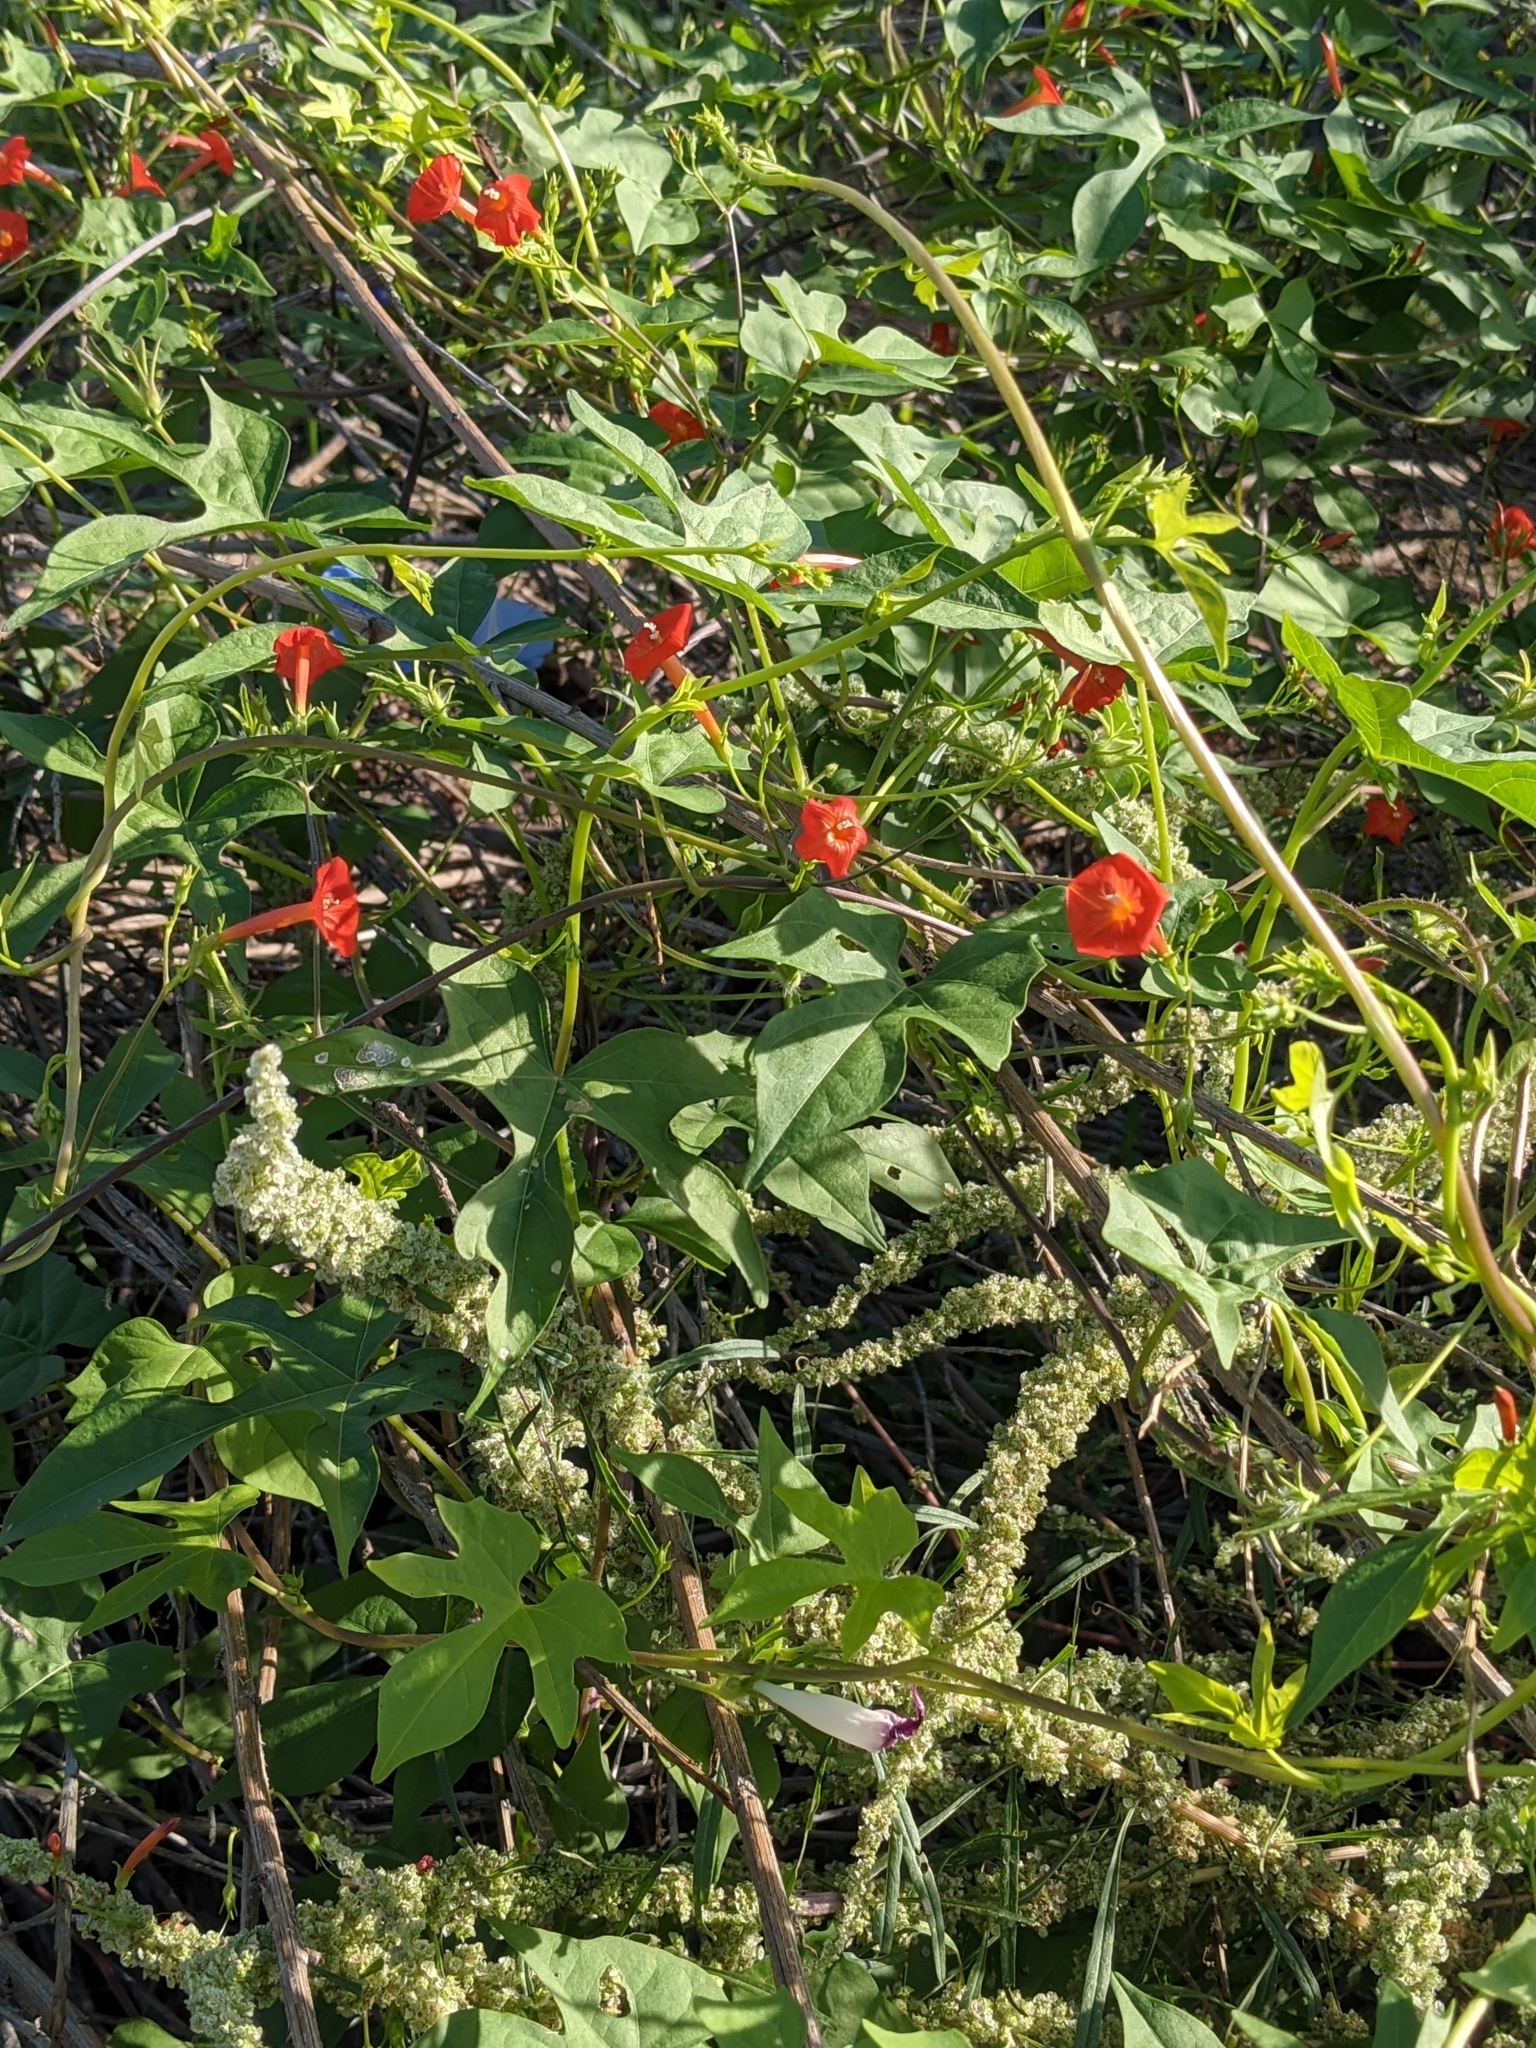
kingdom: Plantae
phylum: Tracheophyta
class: Magnoliopsida
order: Solanales
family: Convolvulaceae
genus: Ipomoea
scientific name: Ipomoea cristulata
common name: Trans-pecos morning-glory
